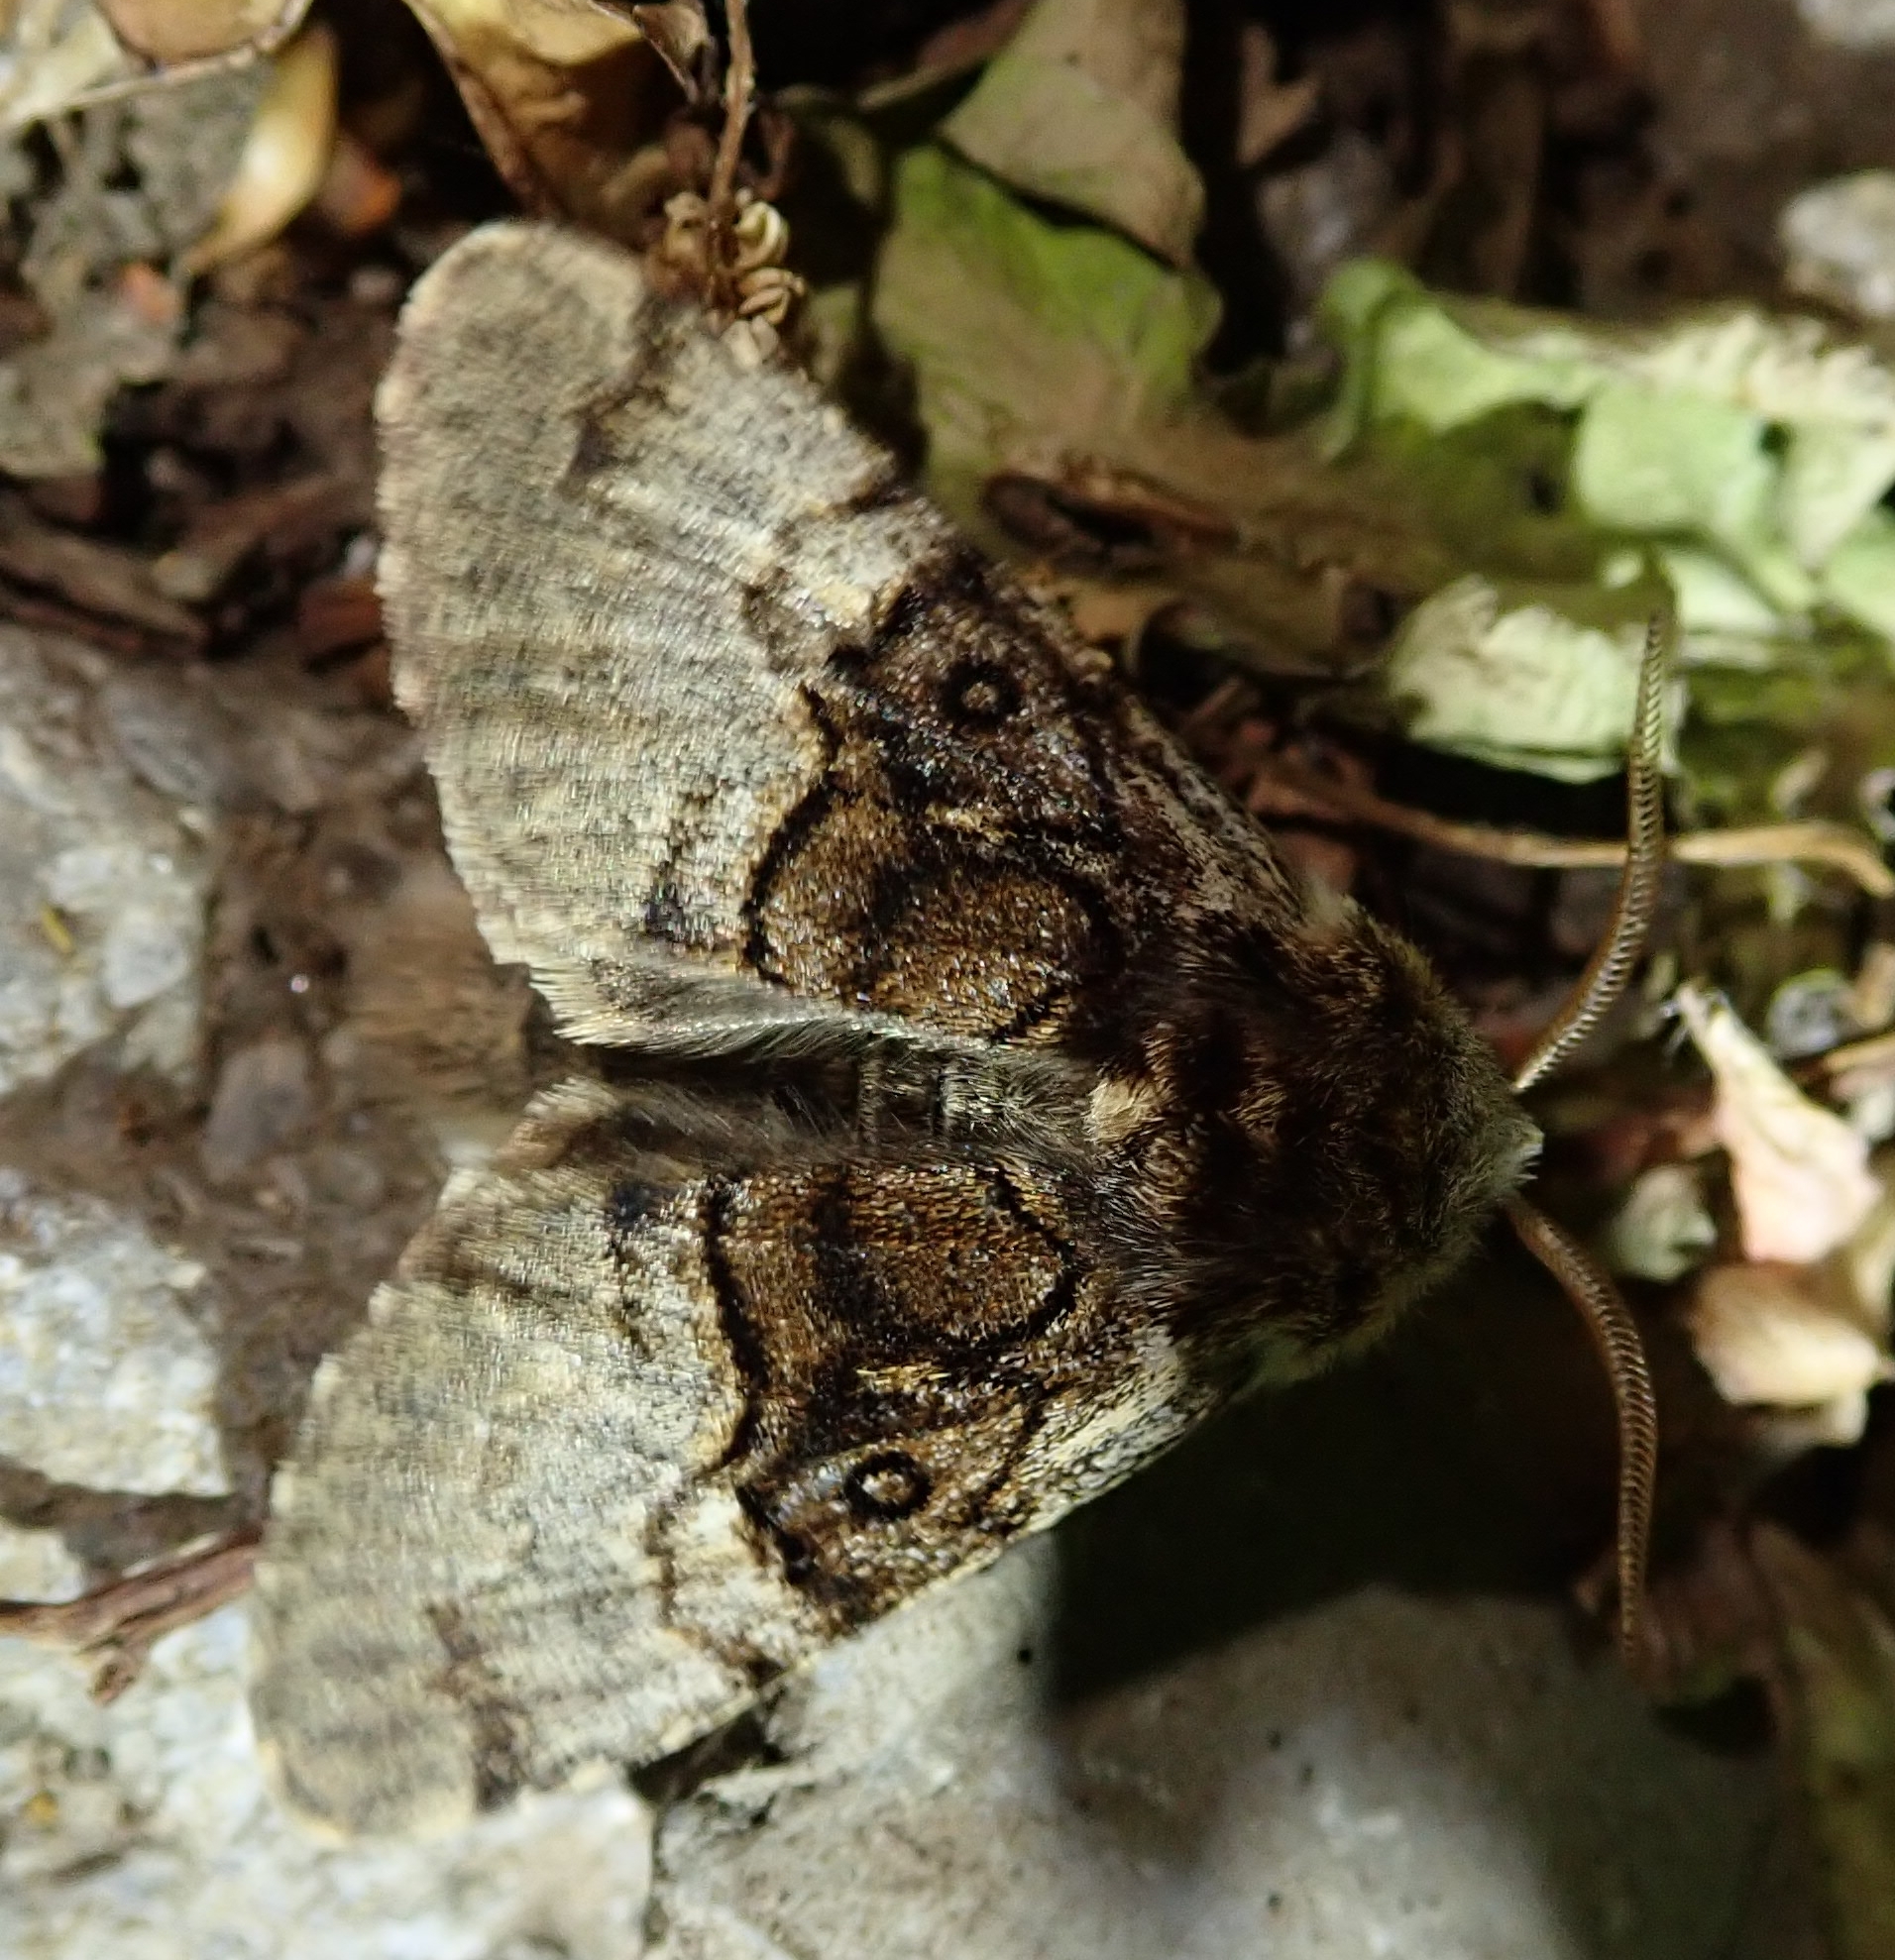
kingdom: Animalia
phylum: Arthropoda
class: Insecta
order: Lepidoptera
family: Noctuidae
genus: Colocasia
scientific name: Colocasia coryli
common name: Nut-tree tussock
